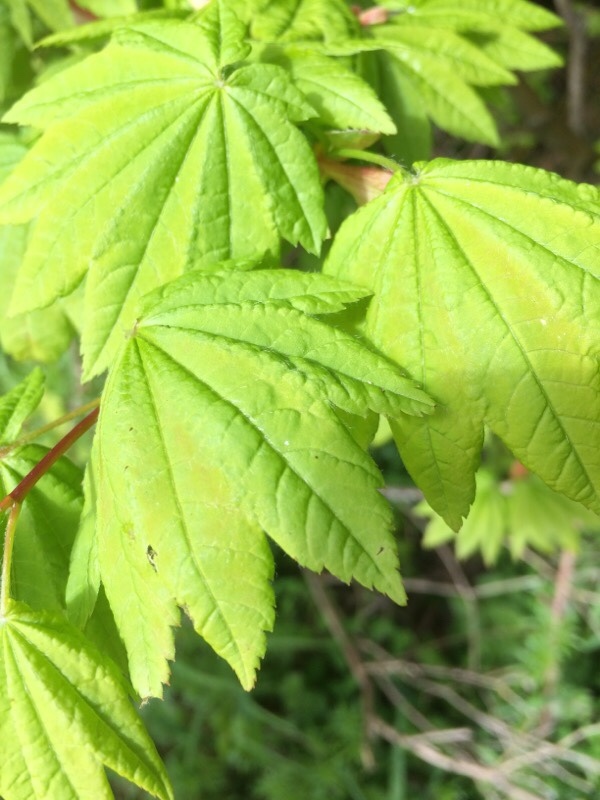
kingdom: Plantae
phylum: Tracheophyta
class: Magnoliopsida
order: Sapindales
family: Sapindaceae
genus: Acer
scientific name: Acer circinatum
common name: Vine maple
